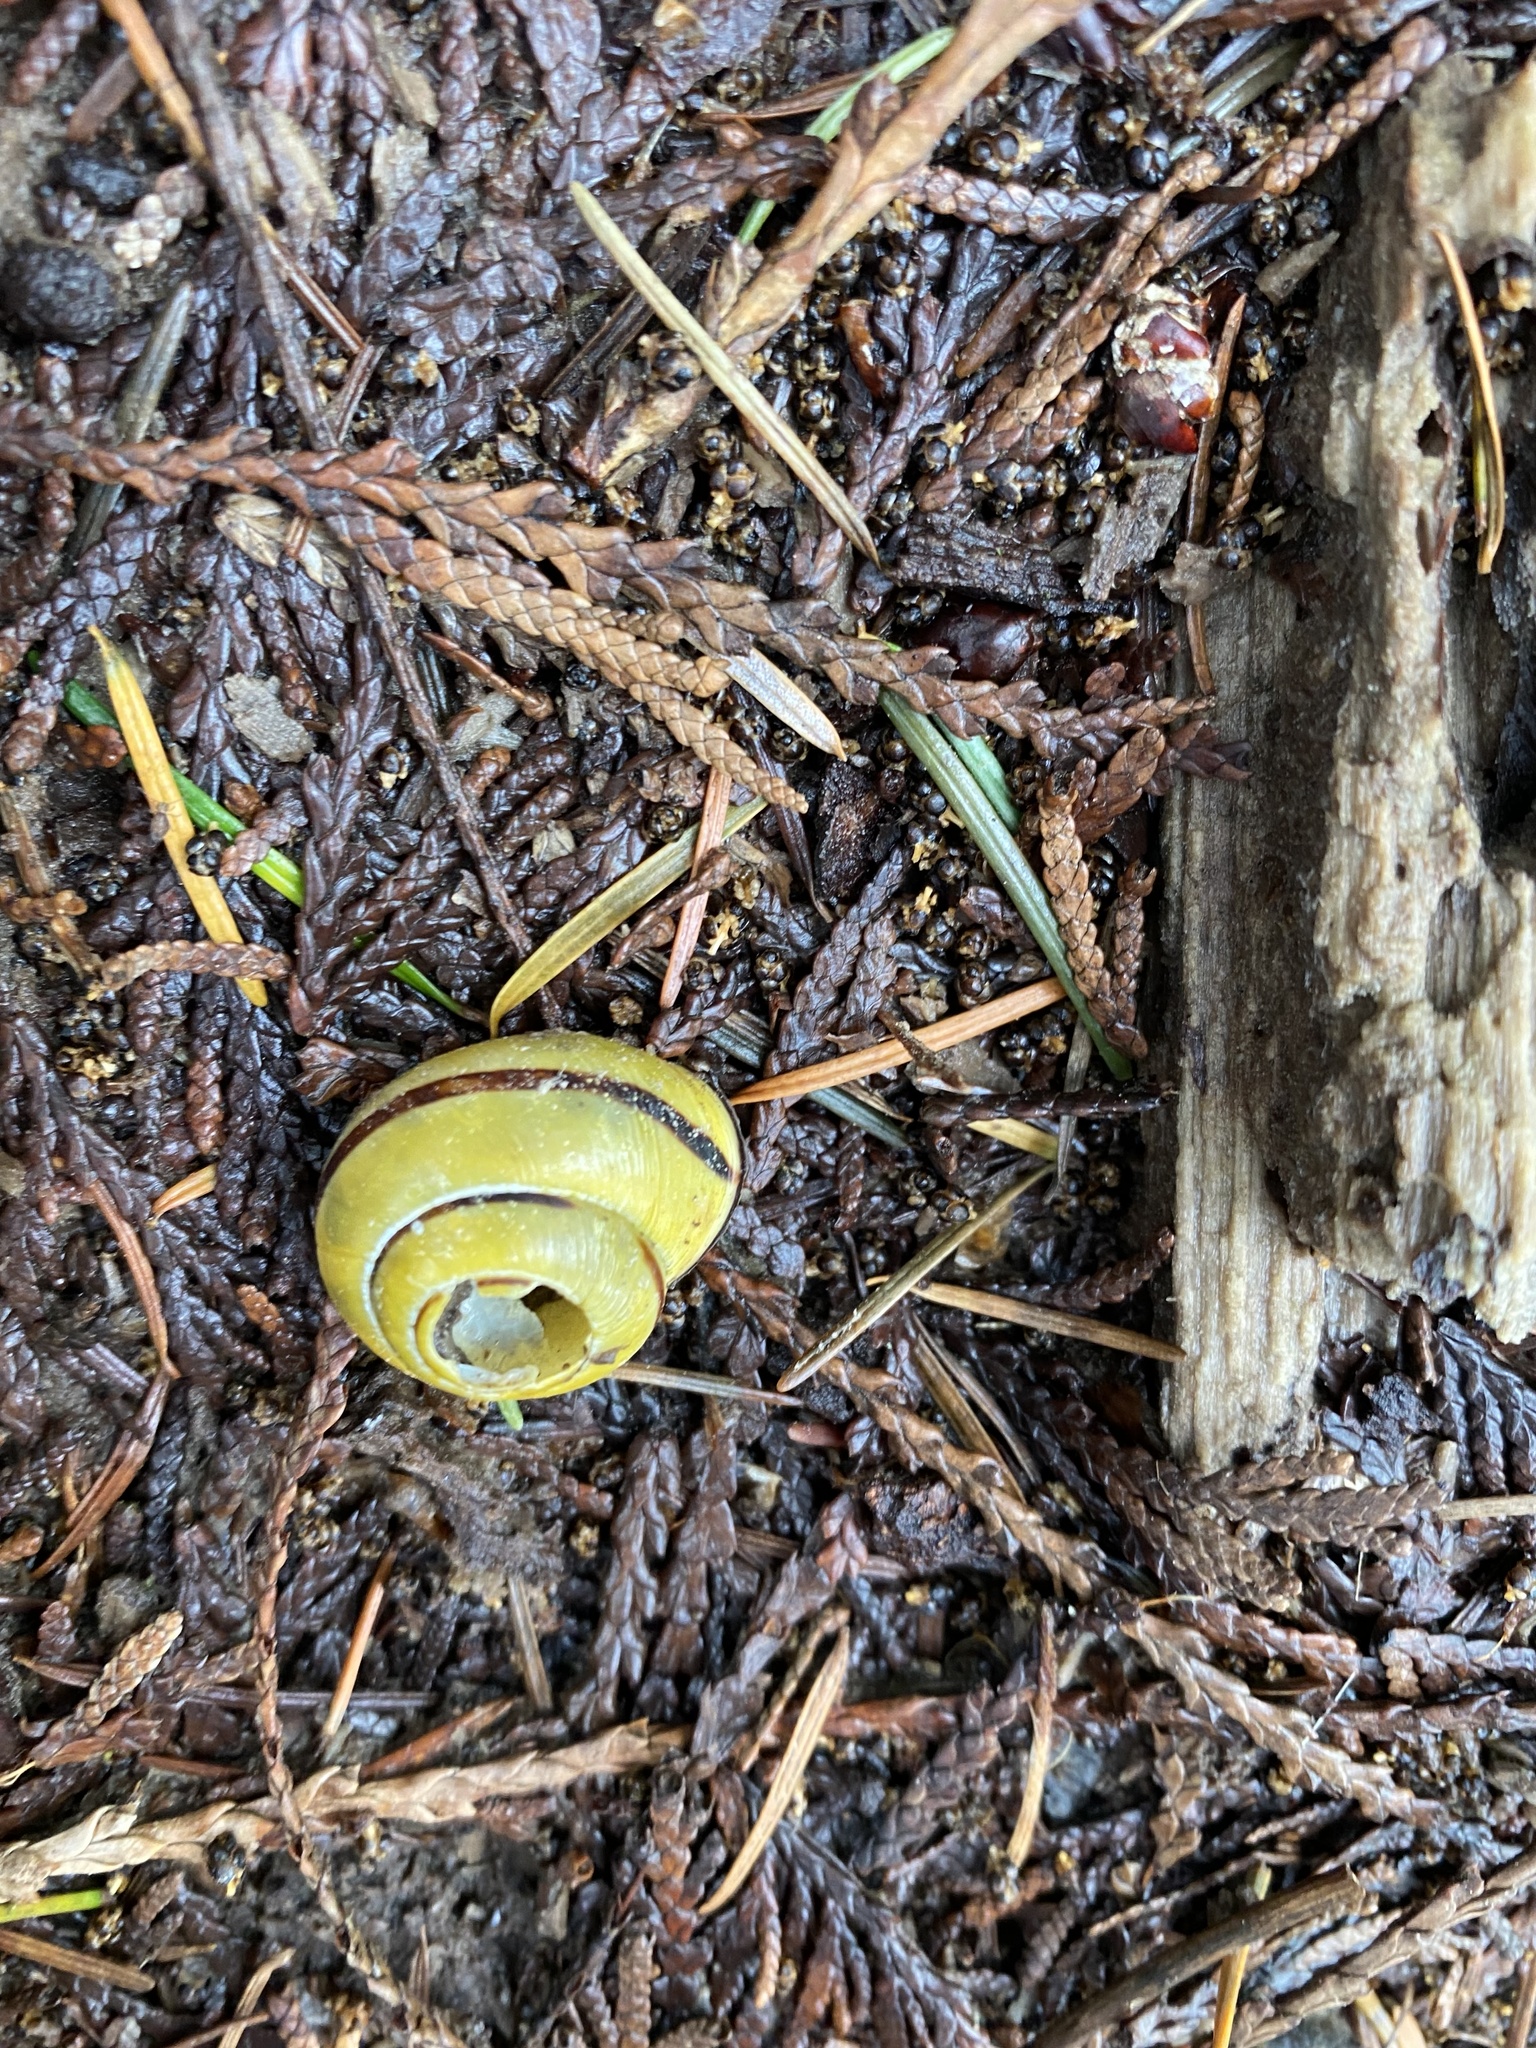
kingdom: Animalia
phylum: Mollusca
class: Gastropoda
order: Stylommatophora
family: Helicidae
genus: Cepaea
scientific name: Cepaea nemoralis
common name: Grovesnail
